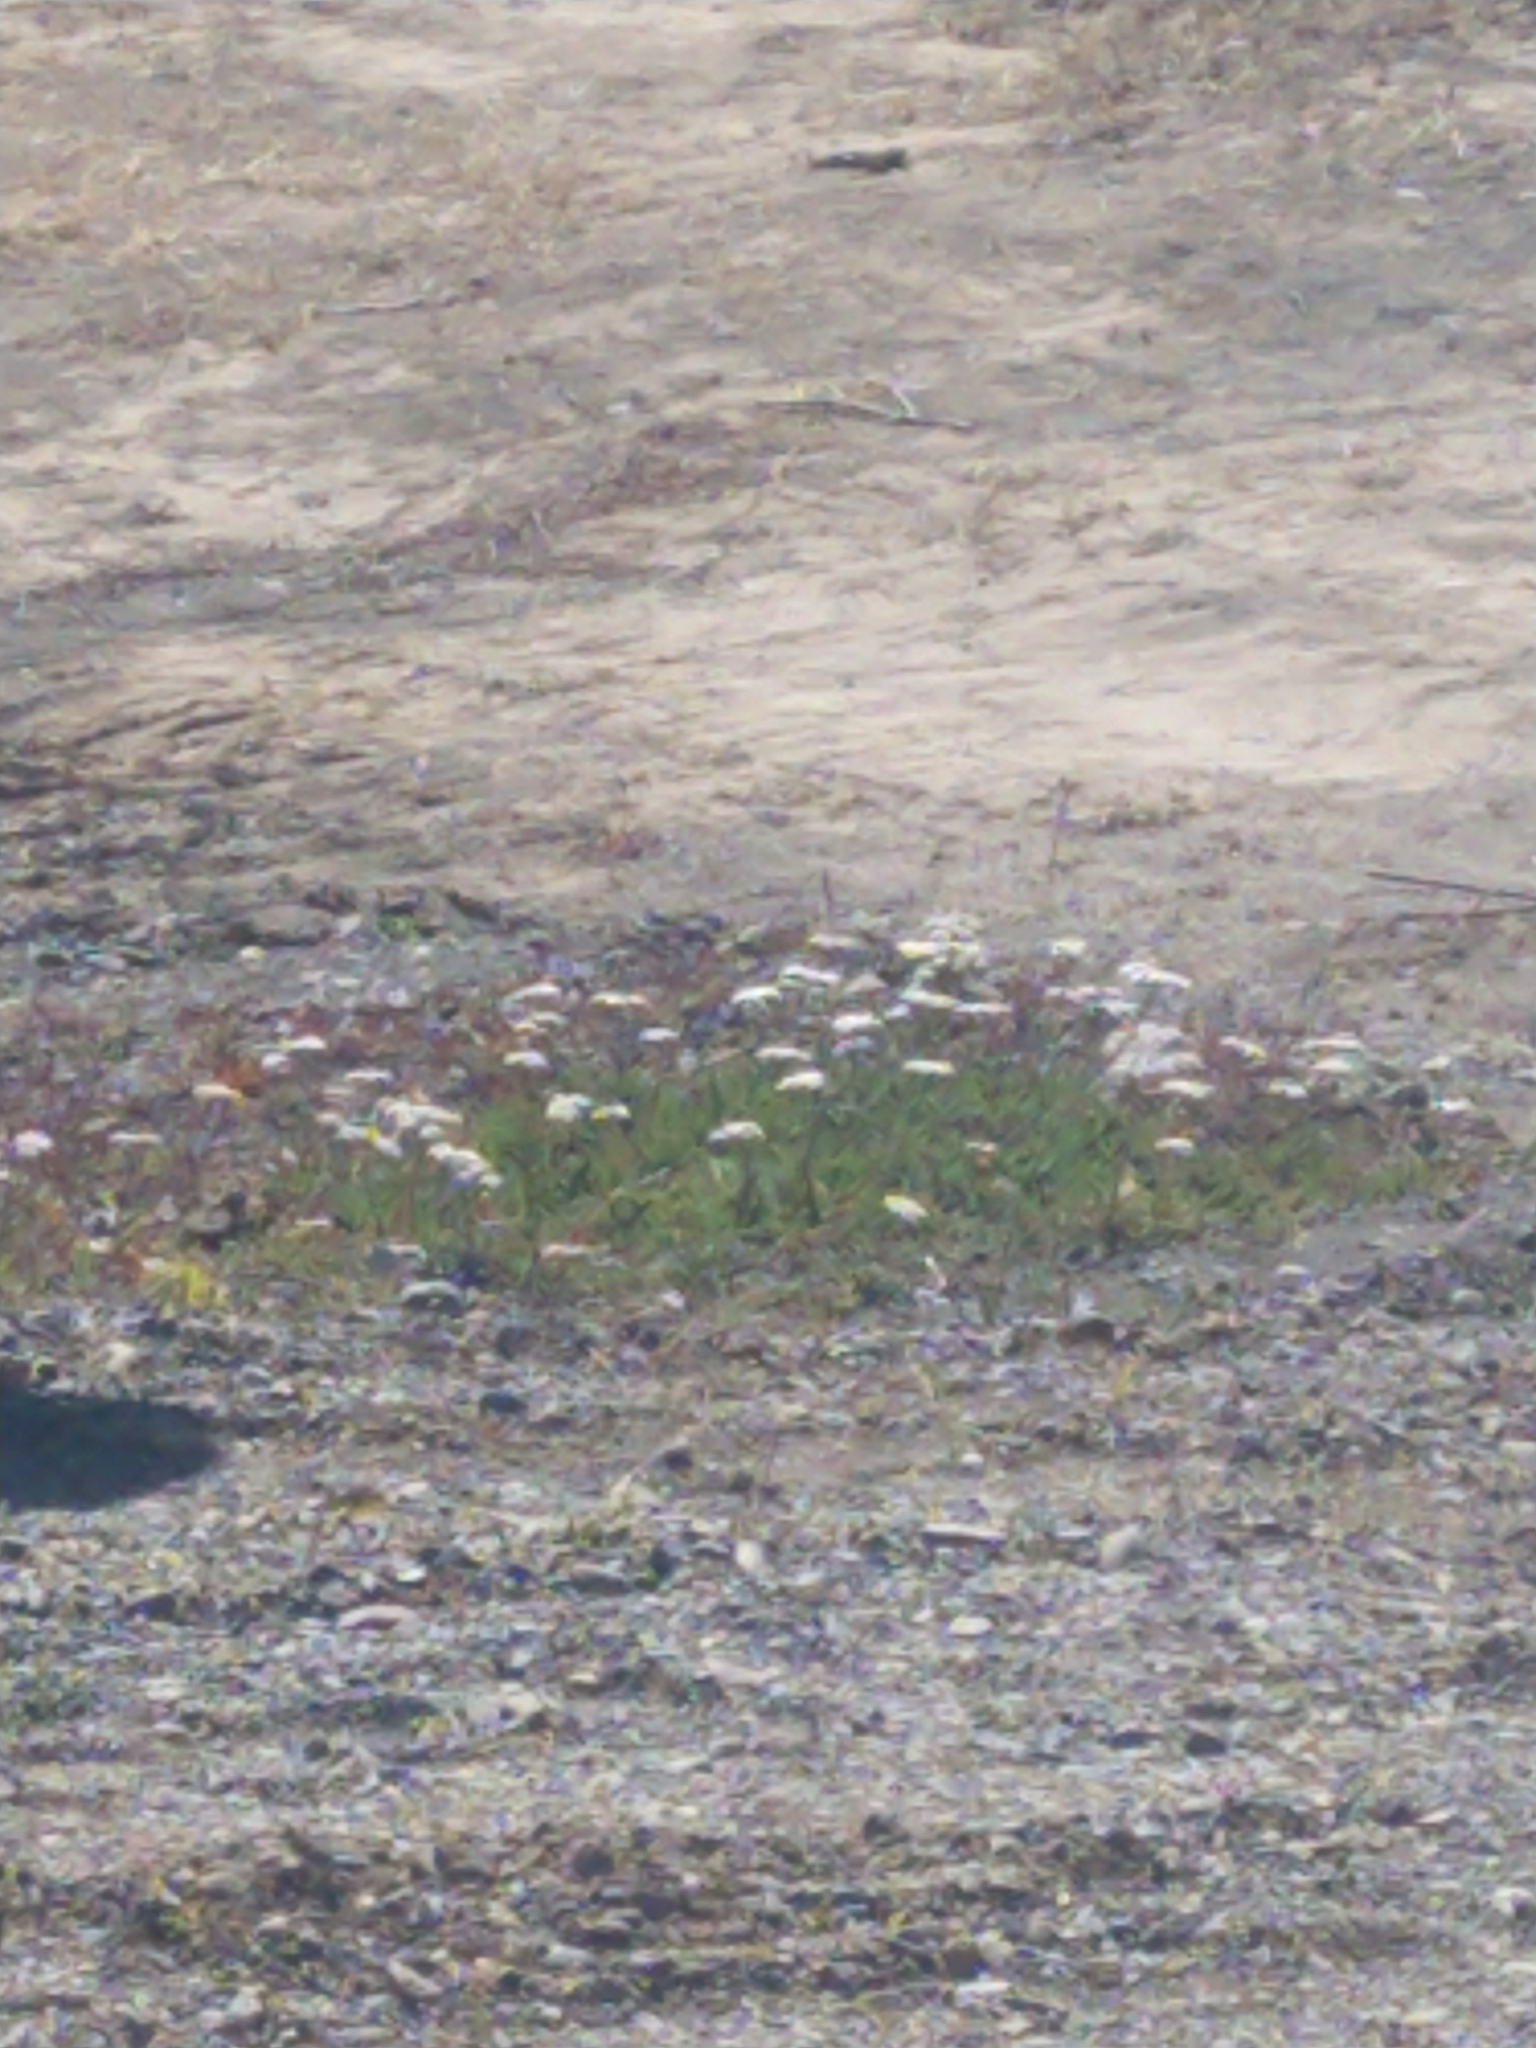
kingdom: Plantae
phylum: Tracheophyta
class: Magnoliopsida
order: Asterales
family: Asteraceae
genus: Achillea
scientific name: Achillea millefolium
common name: Yarrow
